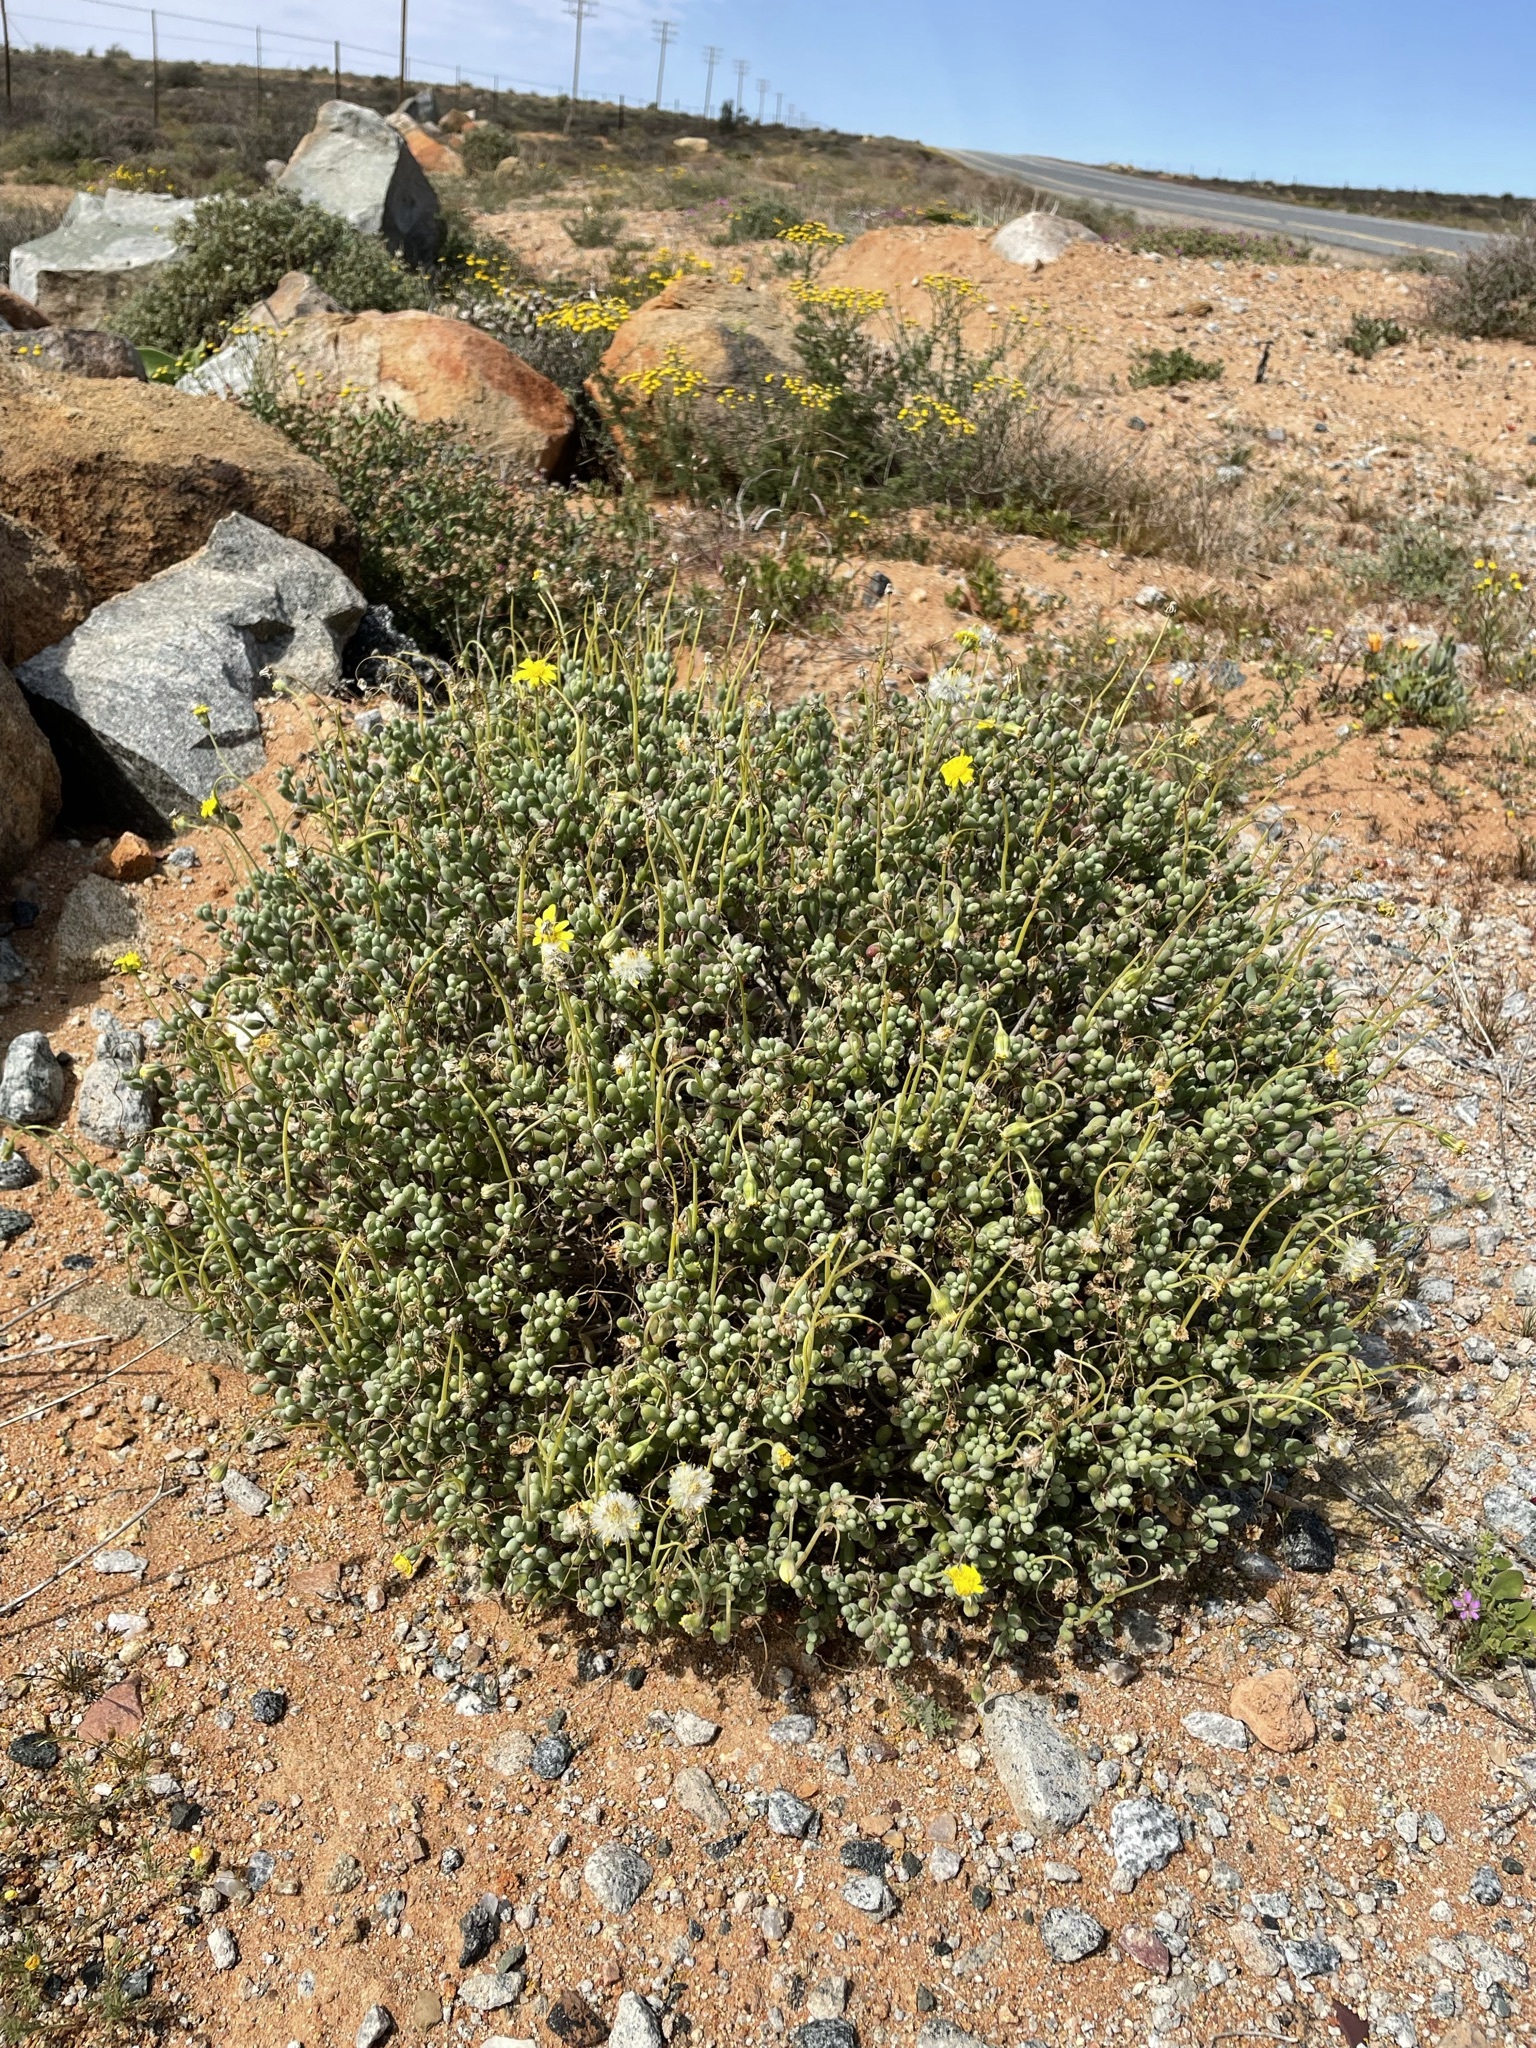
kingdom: Plantae
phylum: Tracheophyta
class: Magnoliopsida
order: Asterales
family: Asteraceae
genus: Crassothonna
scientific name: Crassothonna sedifolia
